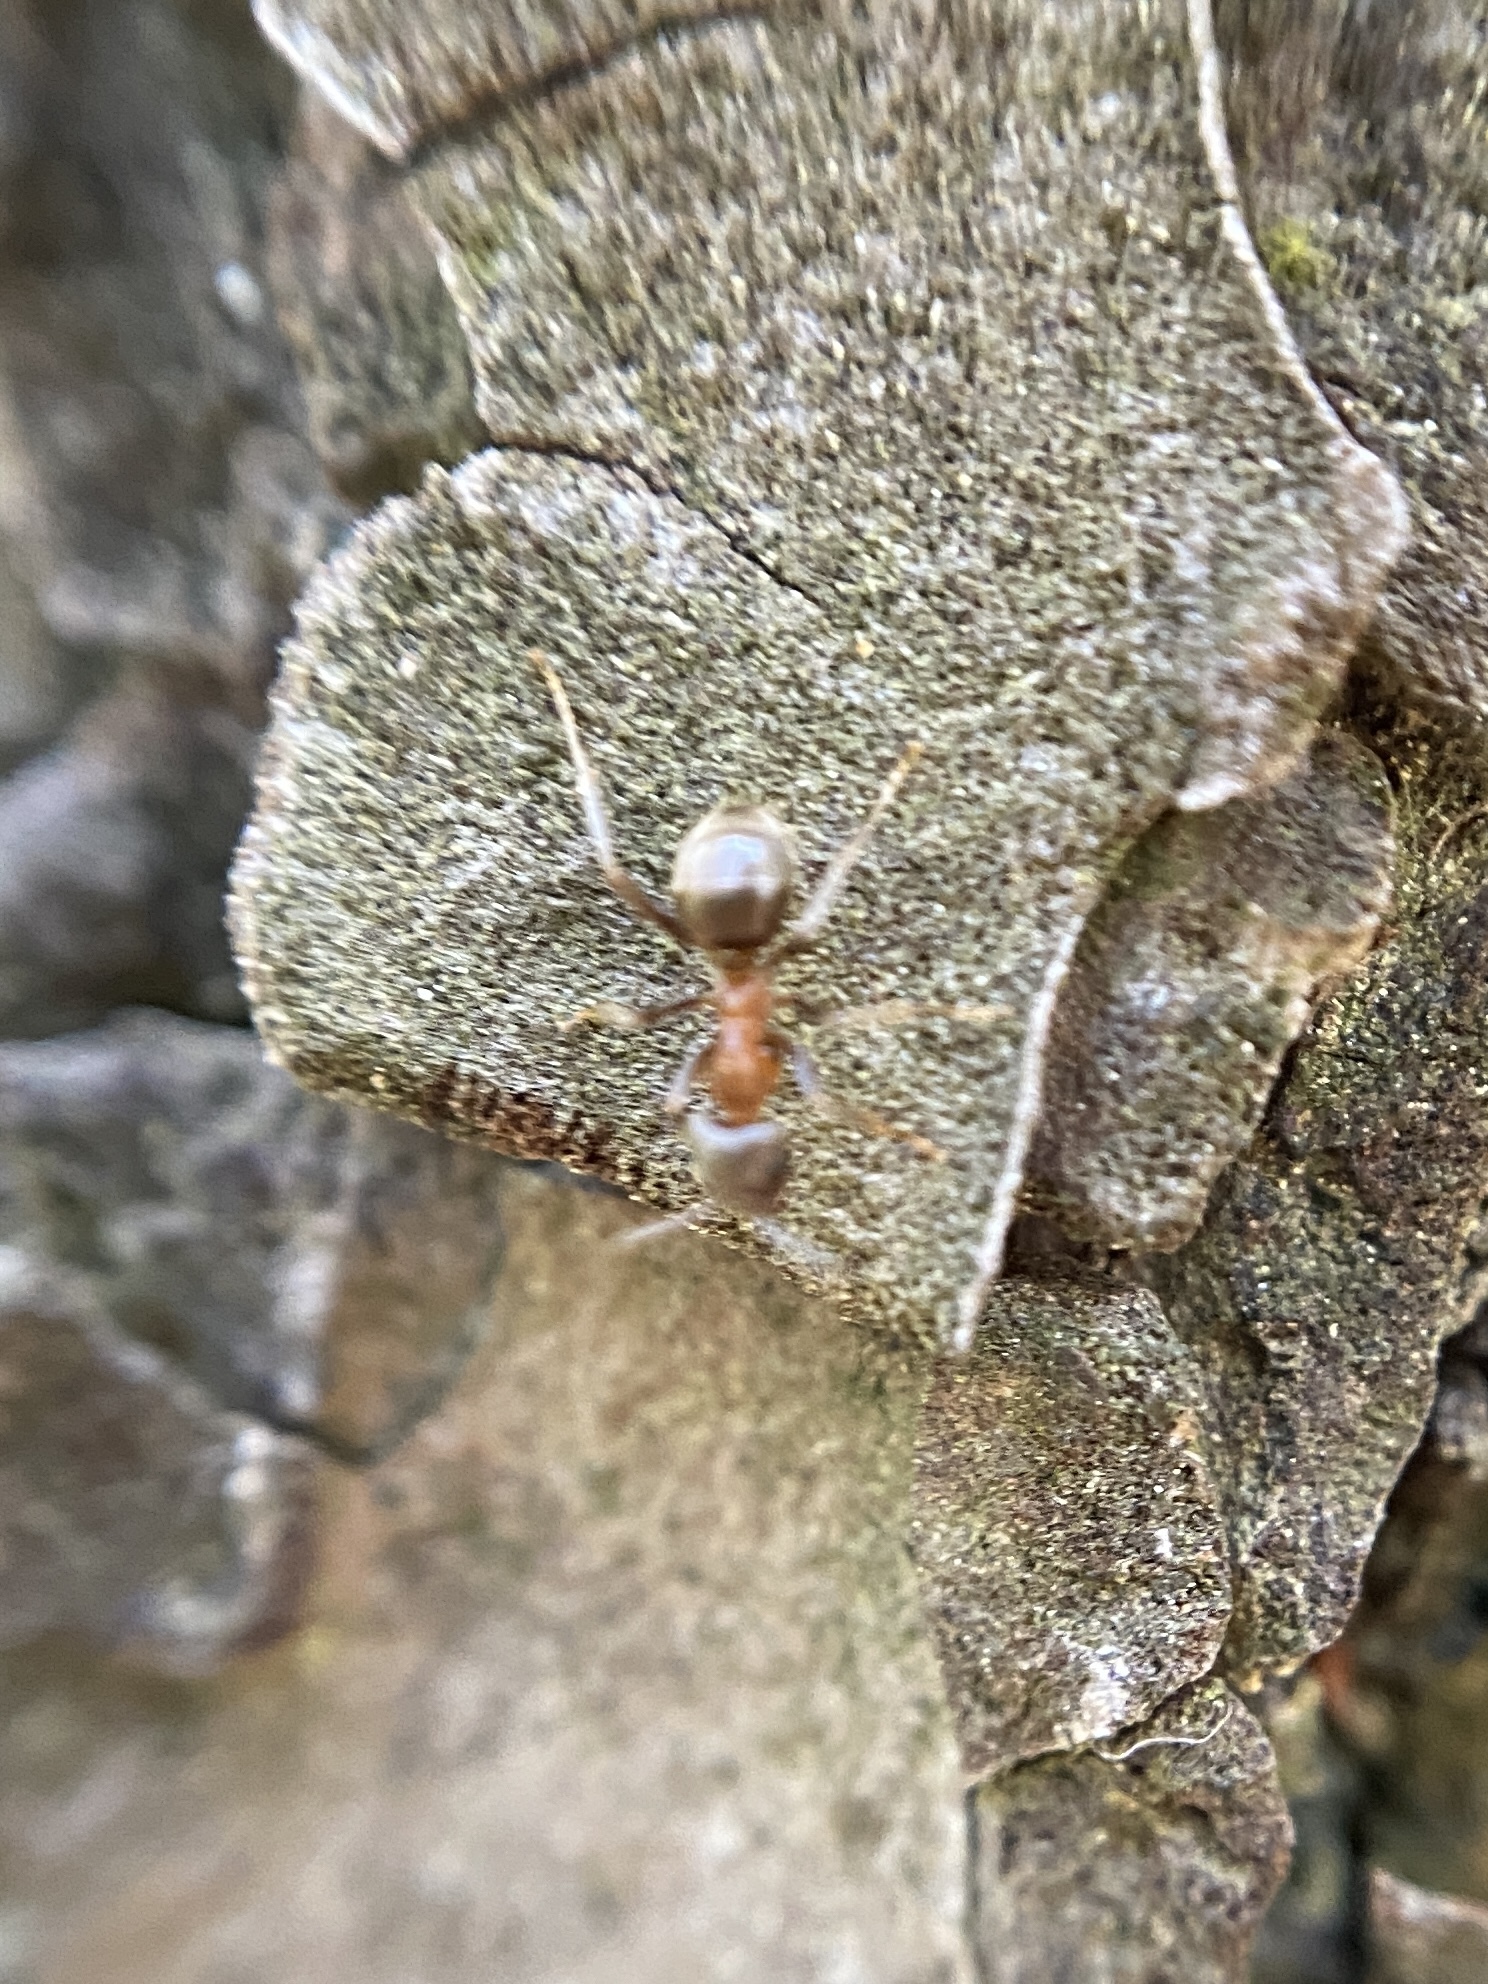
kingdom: Animalia
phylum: Arthropoda
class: Insecta
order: Hymenoptera
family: Formicidae
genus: Lasius
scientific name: Lasius emarginatus
